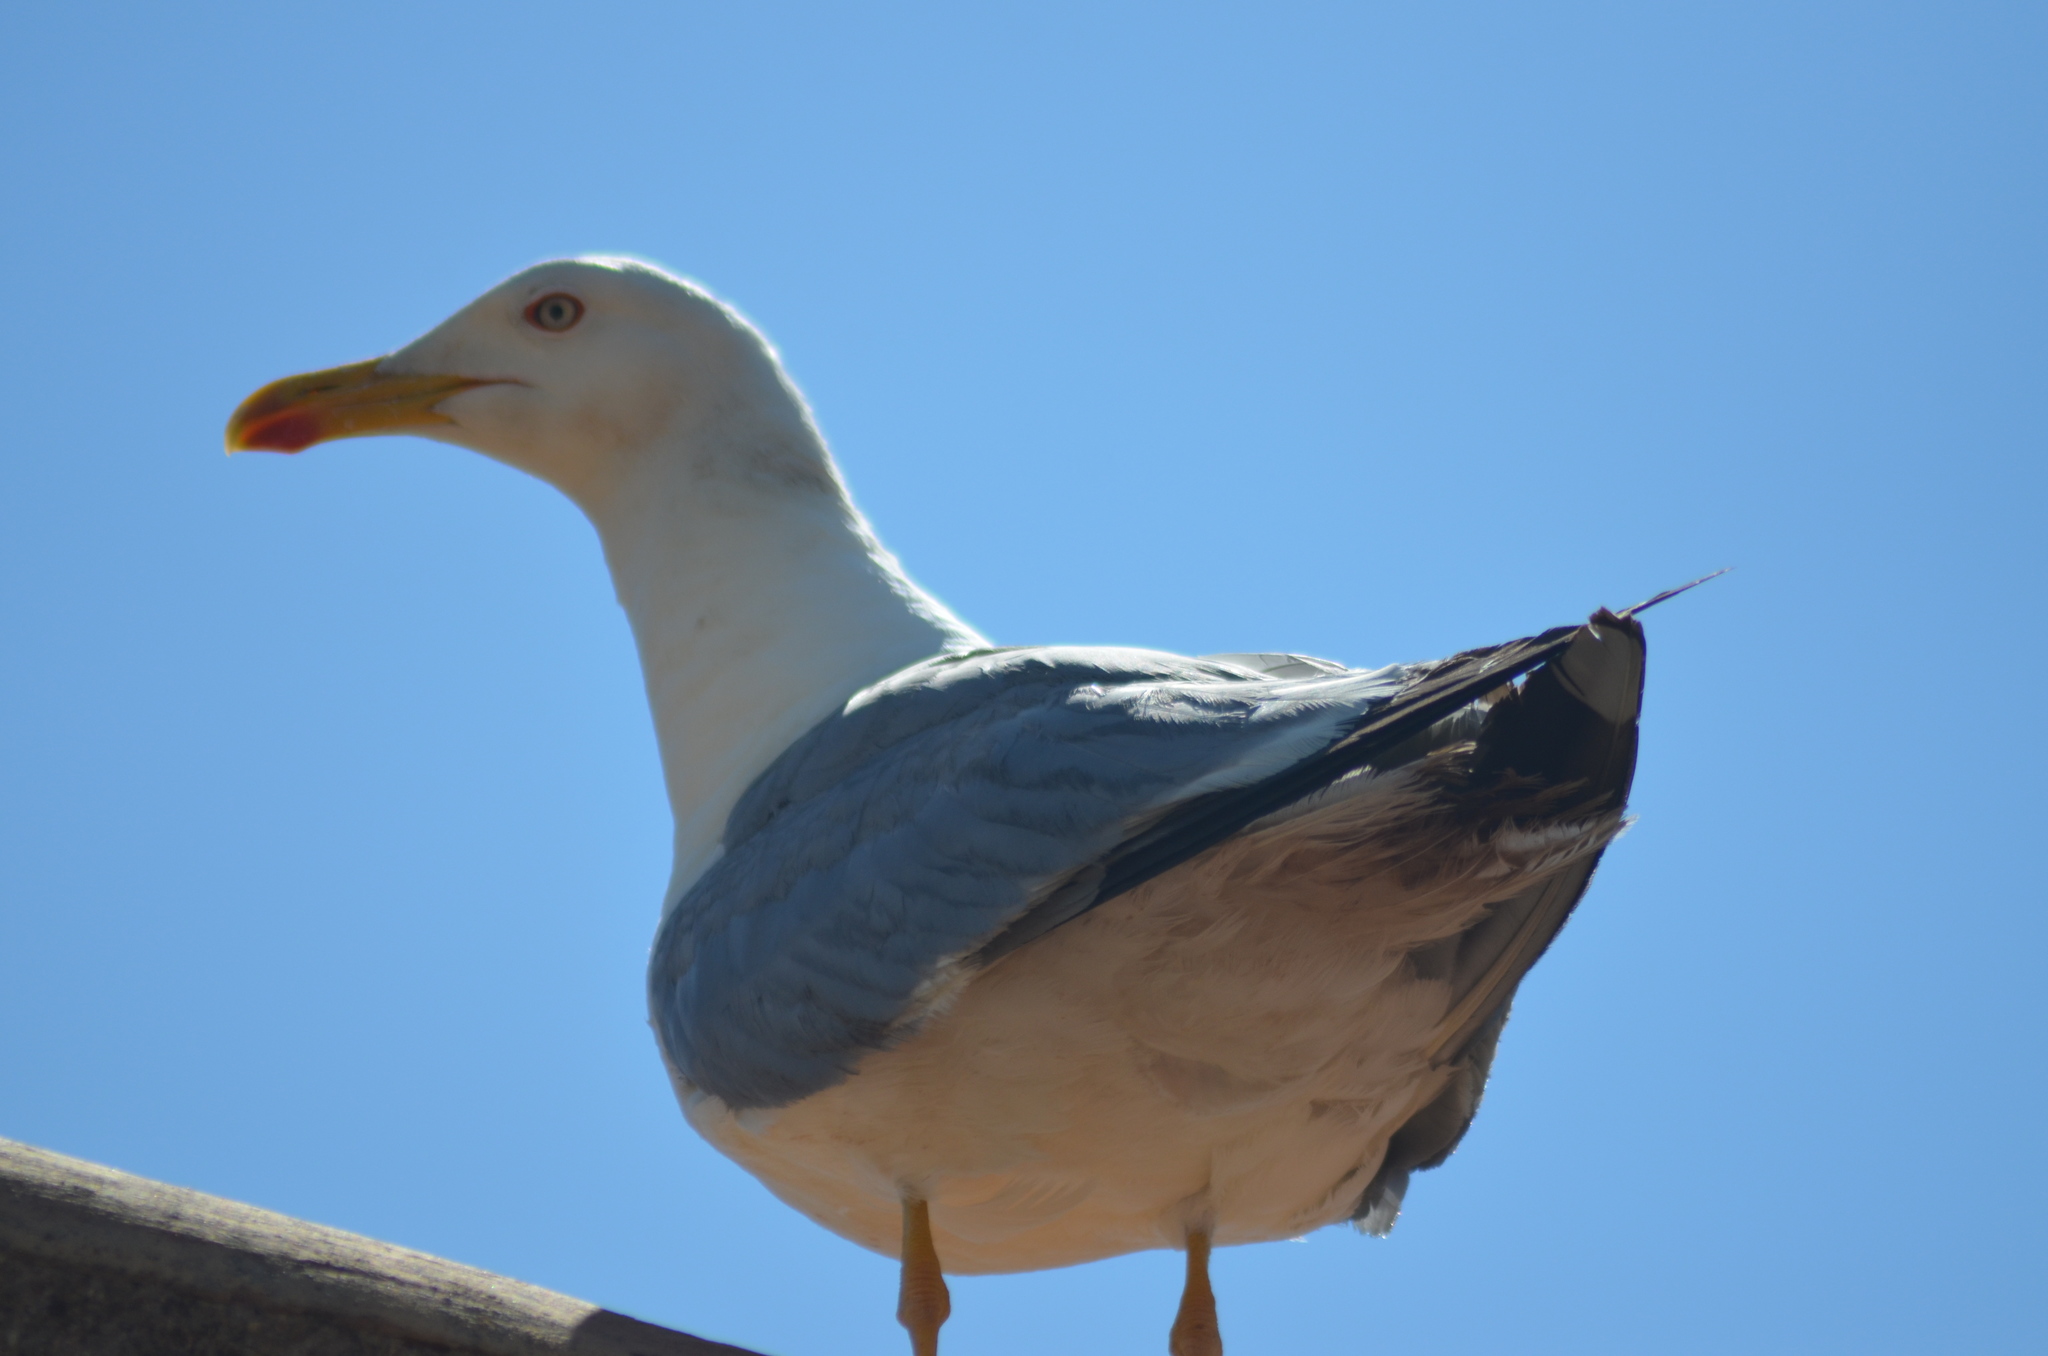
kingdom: Animalia
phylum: Chordata
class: Aves
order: Charadriiformes
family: Laridae
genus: Larus
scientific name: Larus michahellis
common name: Yellow-legged gull
